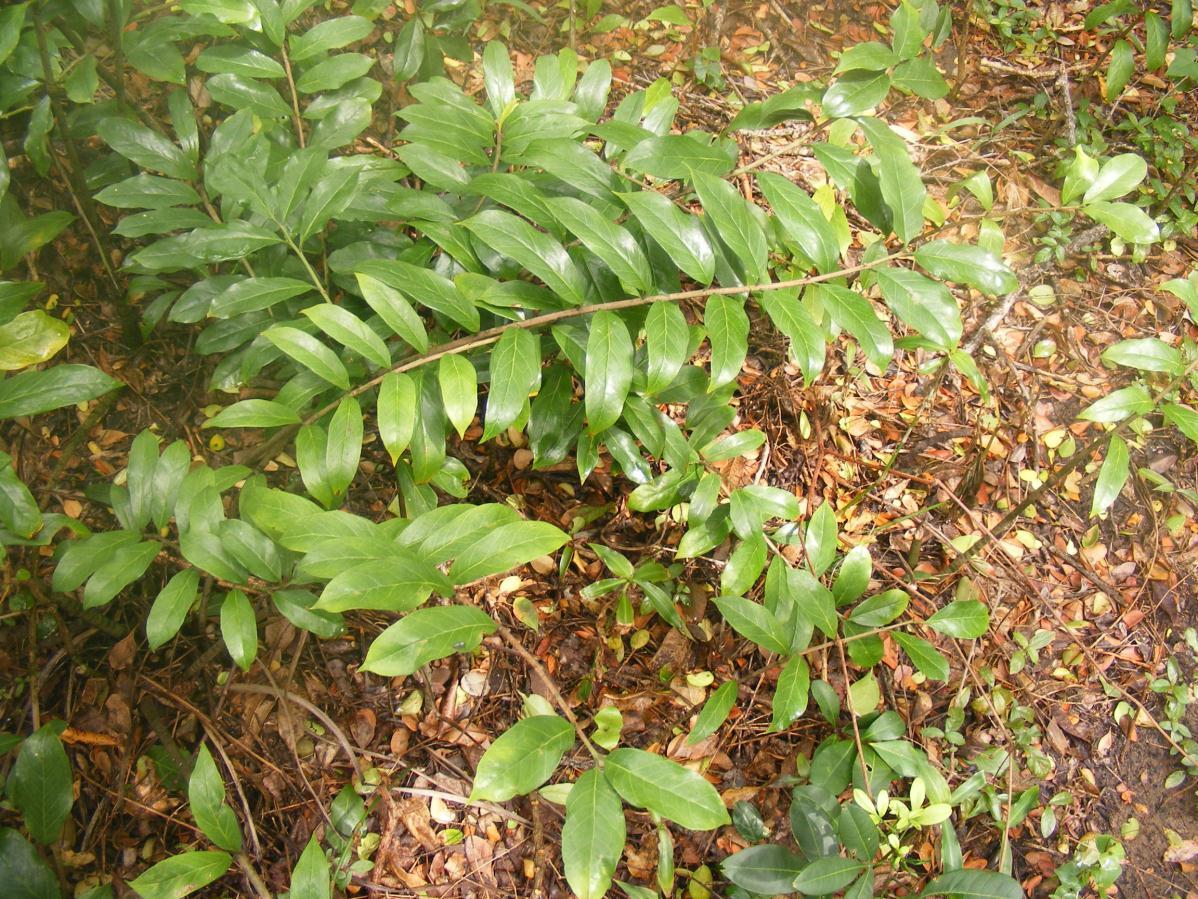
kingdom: Plantae
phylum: Tracheophyta
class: Liliopsida
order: Alismatales
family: Araceae
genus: Zamioculcas
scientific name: Zamioculcas zamiifolia
